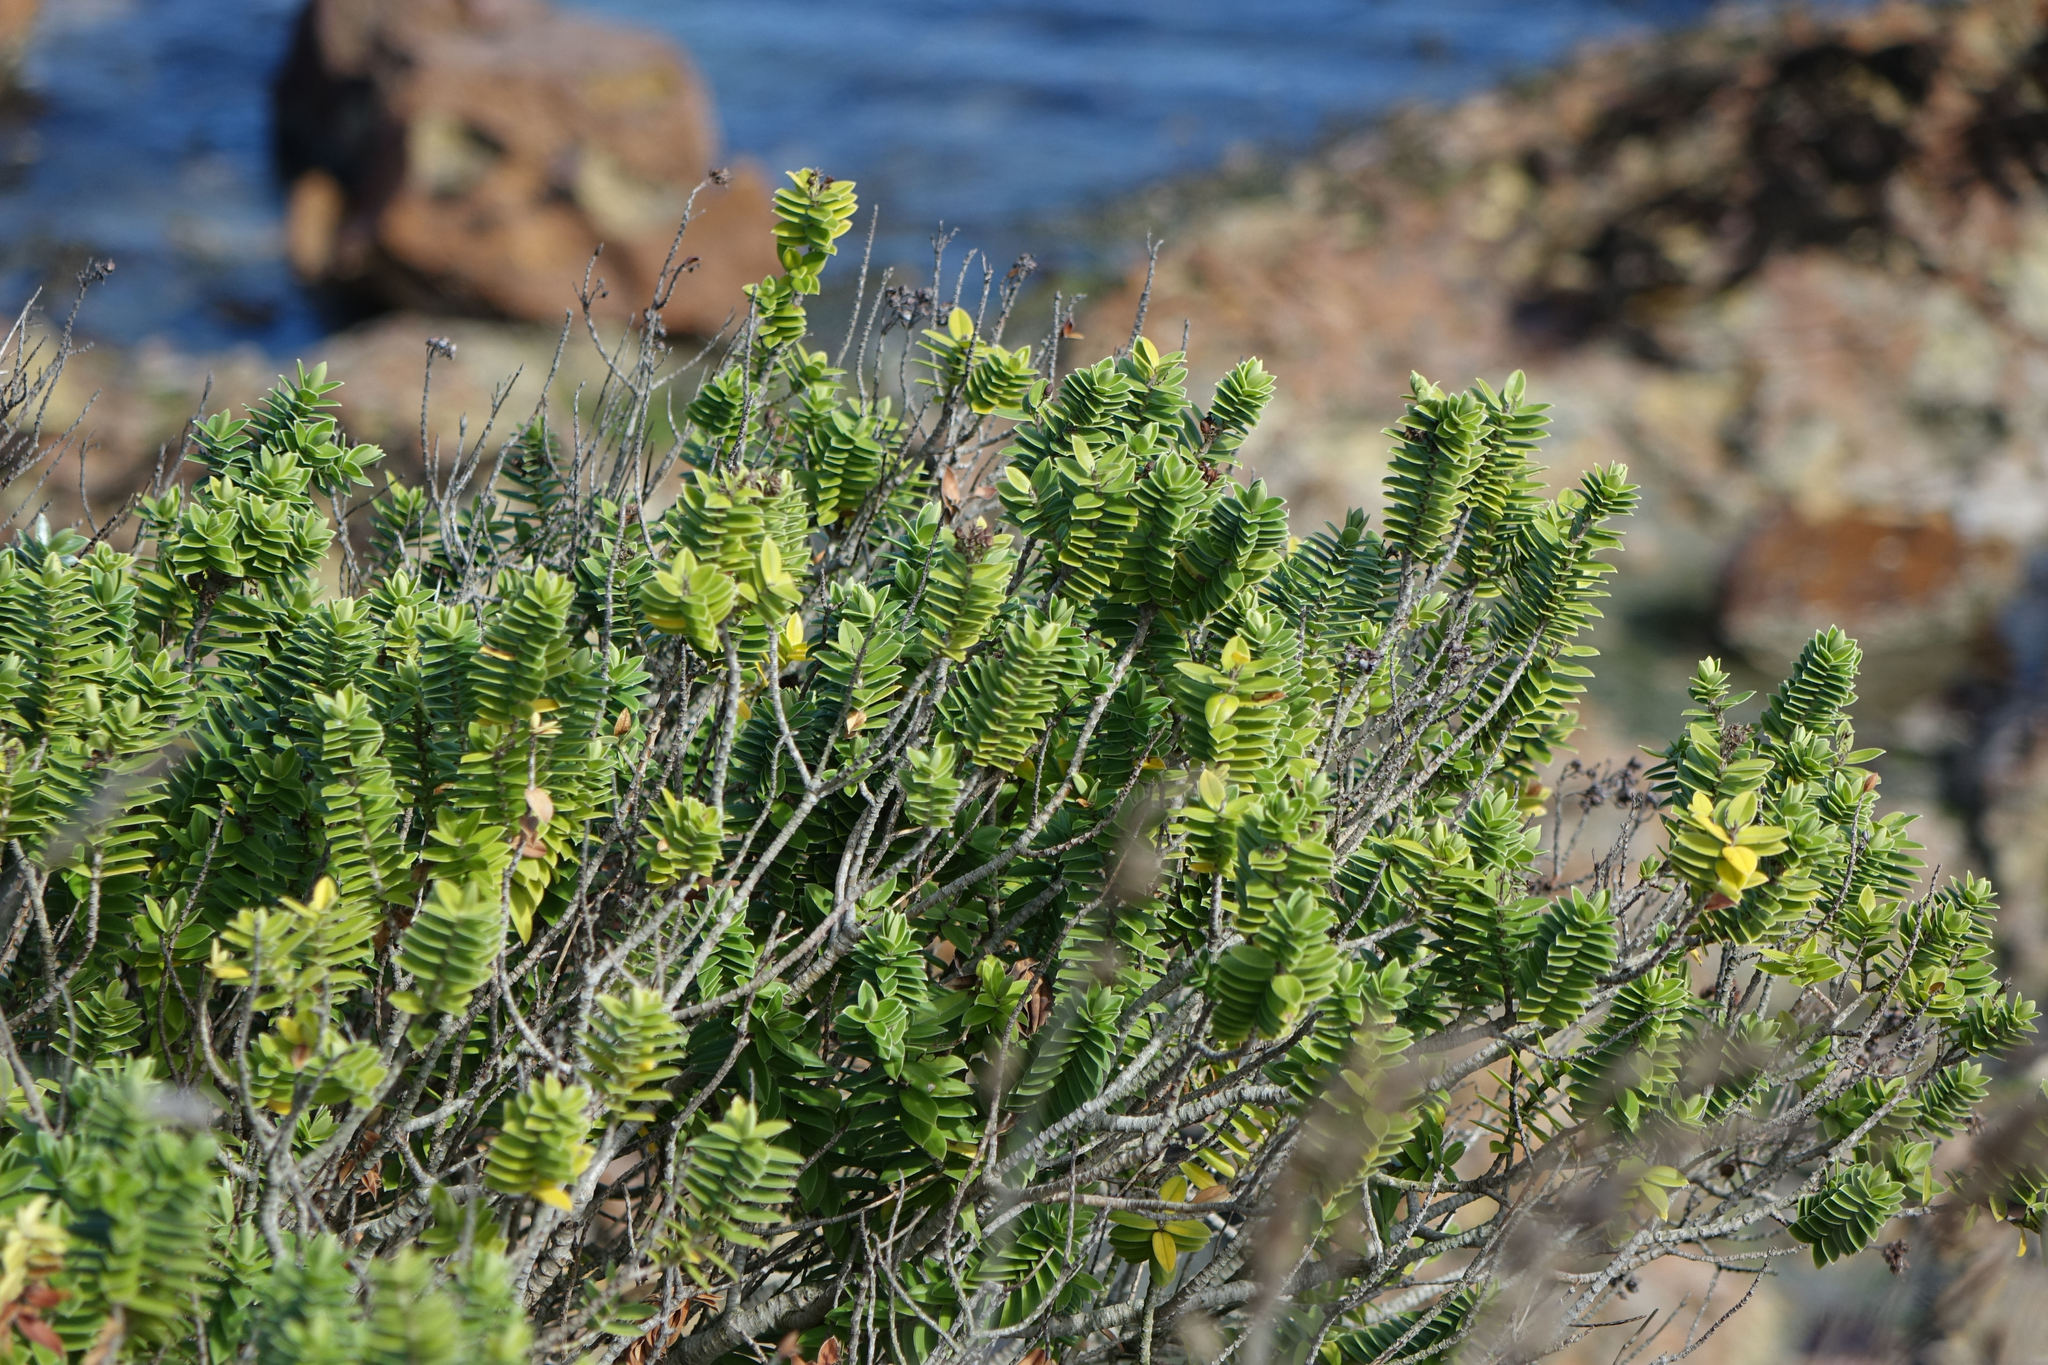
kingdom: Plantae
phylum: Tracheophyta
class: Magnoliopsida
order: Lamiales
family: Plantaginaceae
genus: Veronica
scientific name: Veronica elliptica
